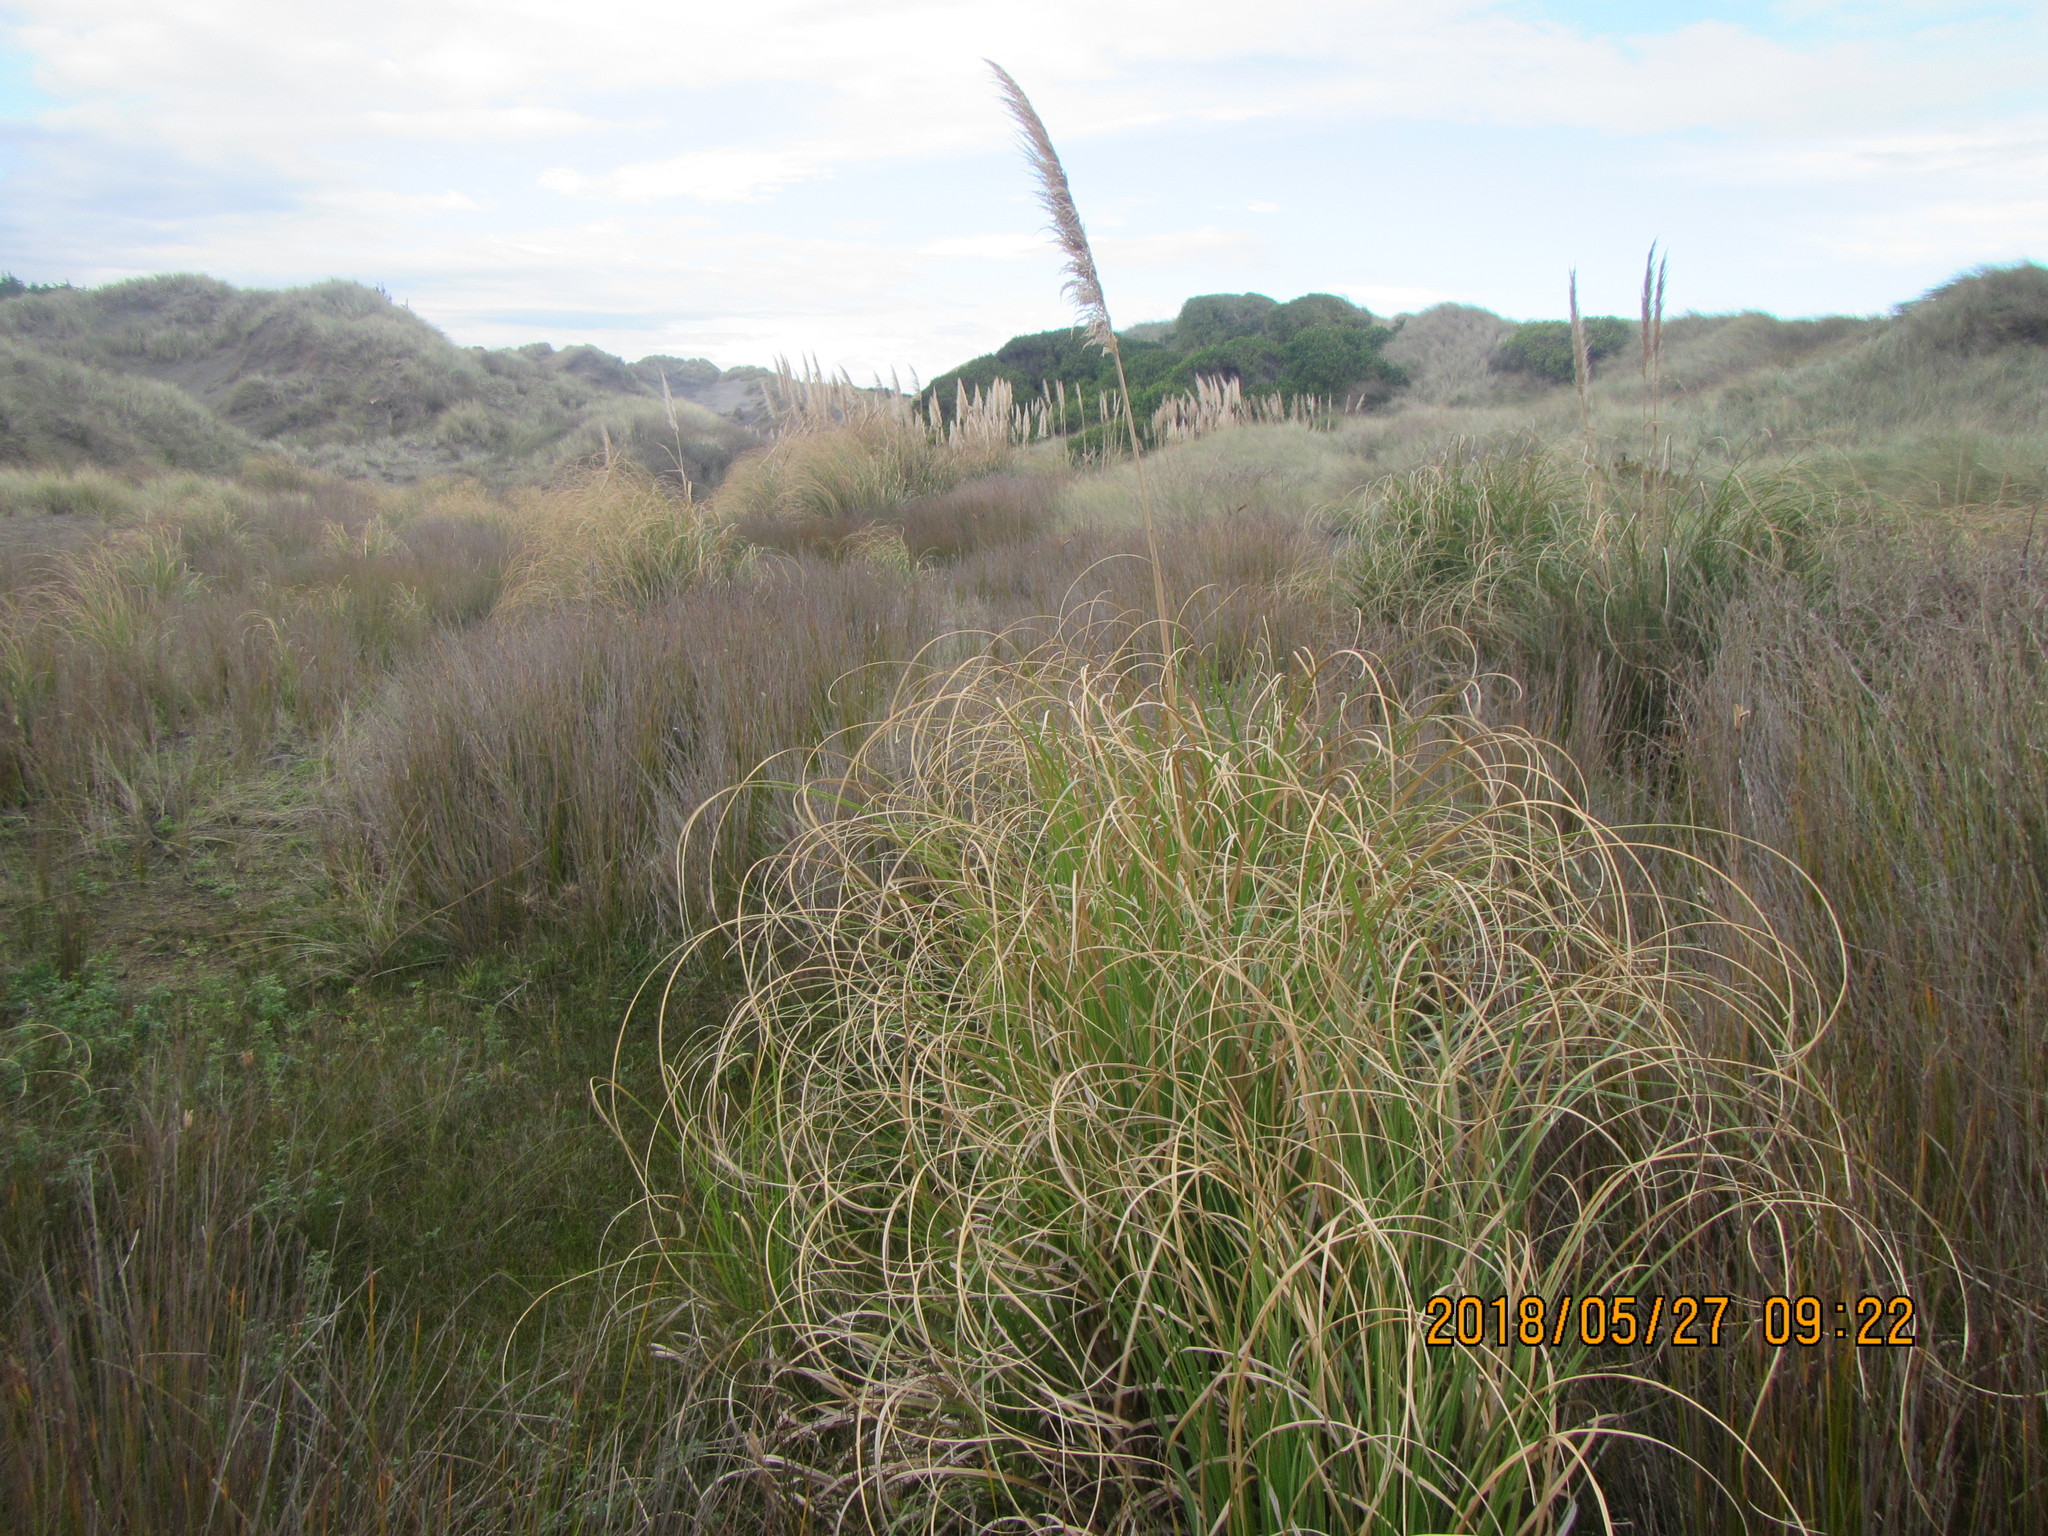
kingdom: Plantae
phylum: Tracheophyta
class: Liliopsida
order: Poales
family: Poaceae
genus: Cortaderia
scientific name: Cortaderia selloana
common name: Uruguayan pampas grass
